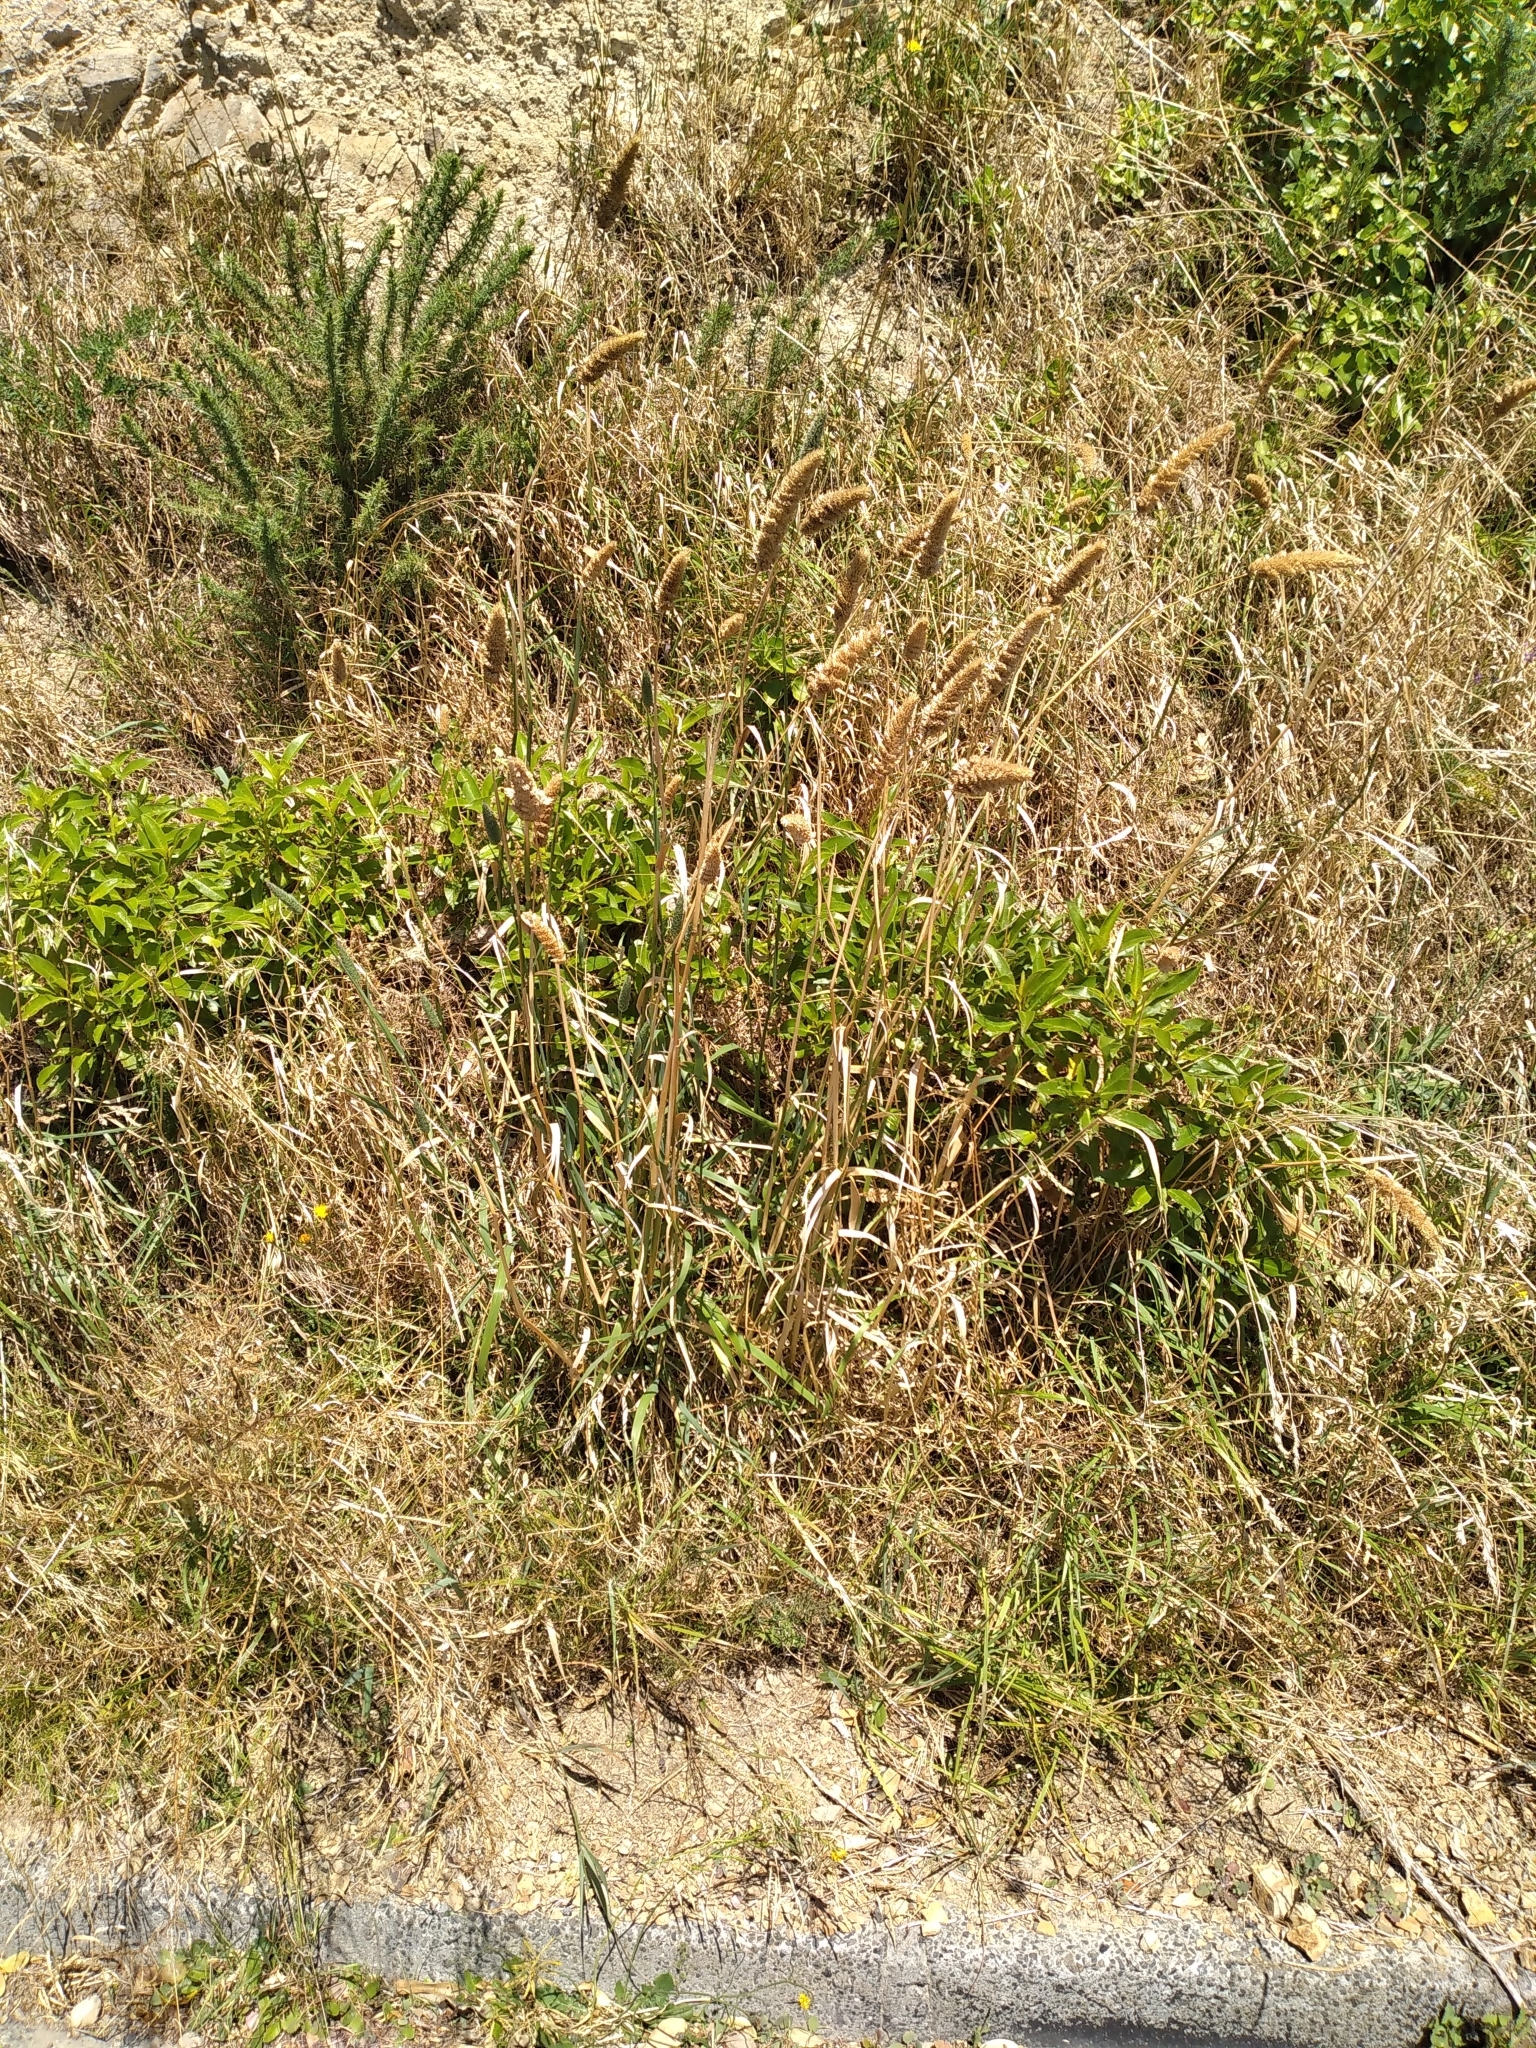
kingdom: Plantae
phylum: Tracheophyta
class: Liliopsida
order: Poales
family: Poaceae
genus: Phalaris
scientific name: Phalaris aquatica
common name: Bulbous canary-grass
